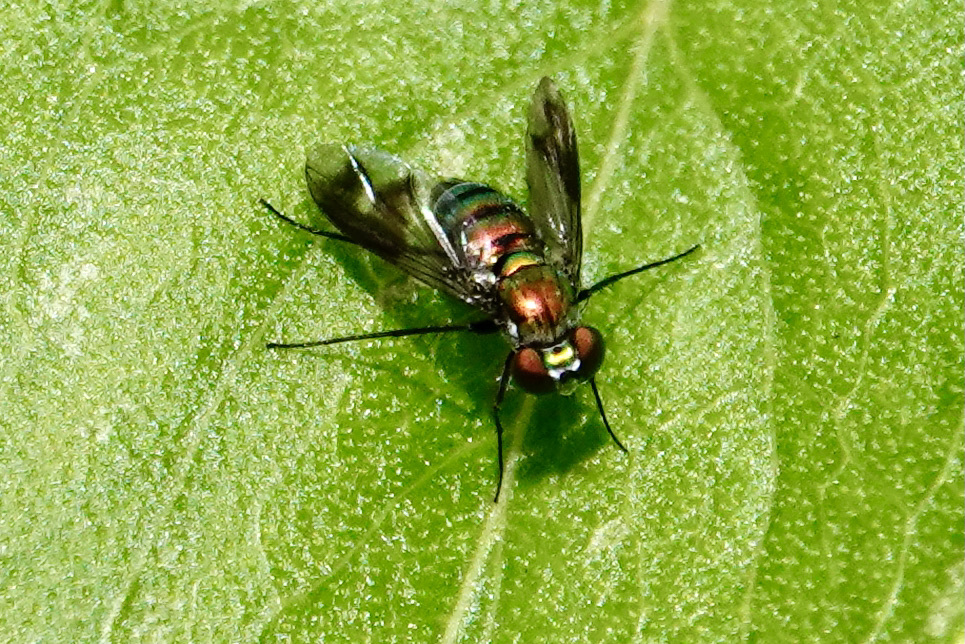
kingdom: Animalia
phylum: Arthropoda
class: Insecta
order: Diptera
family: Dolichopodidae
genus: Condylostylus
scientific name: Condylostylus patibulatus
